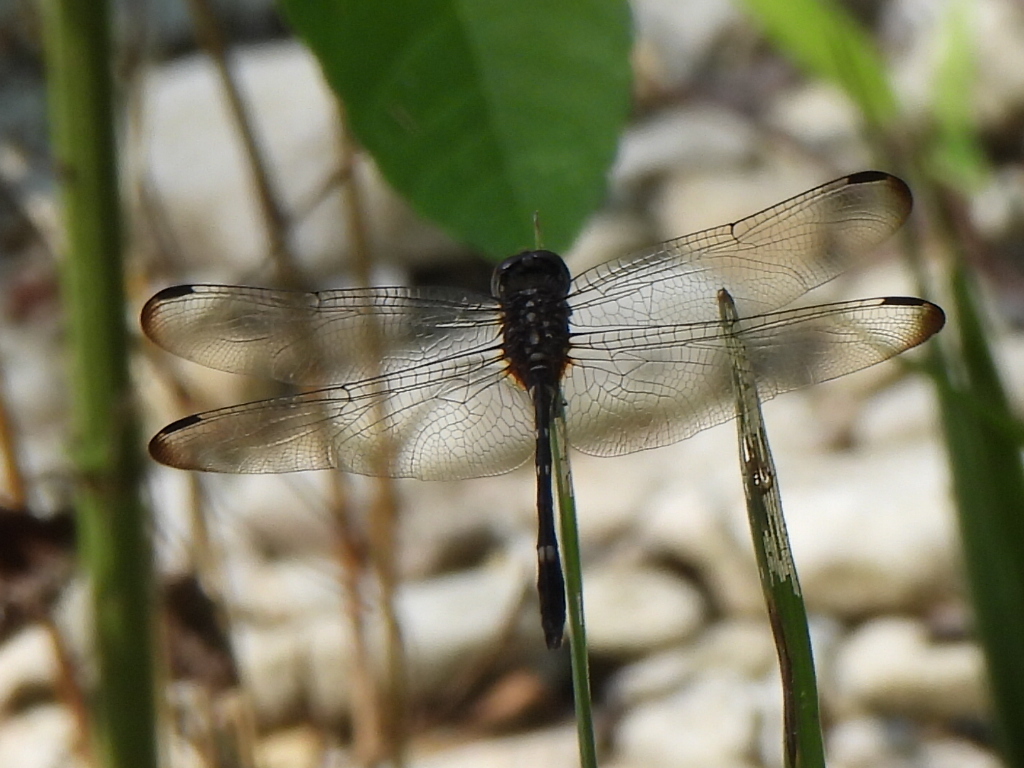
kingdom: Animalia
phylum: Arthropoda
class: Insecta
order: Odonata
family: Libellulidae
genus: Dythemis
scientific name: Dythemis velox
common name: Swift setwing
